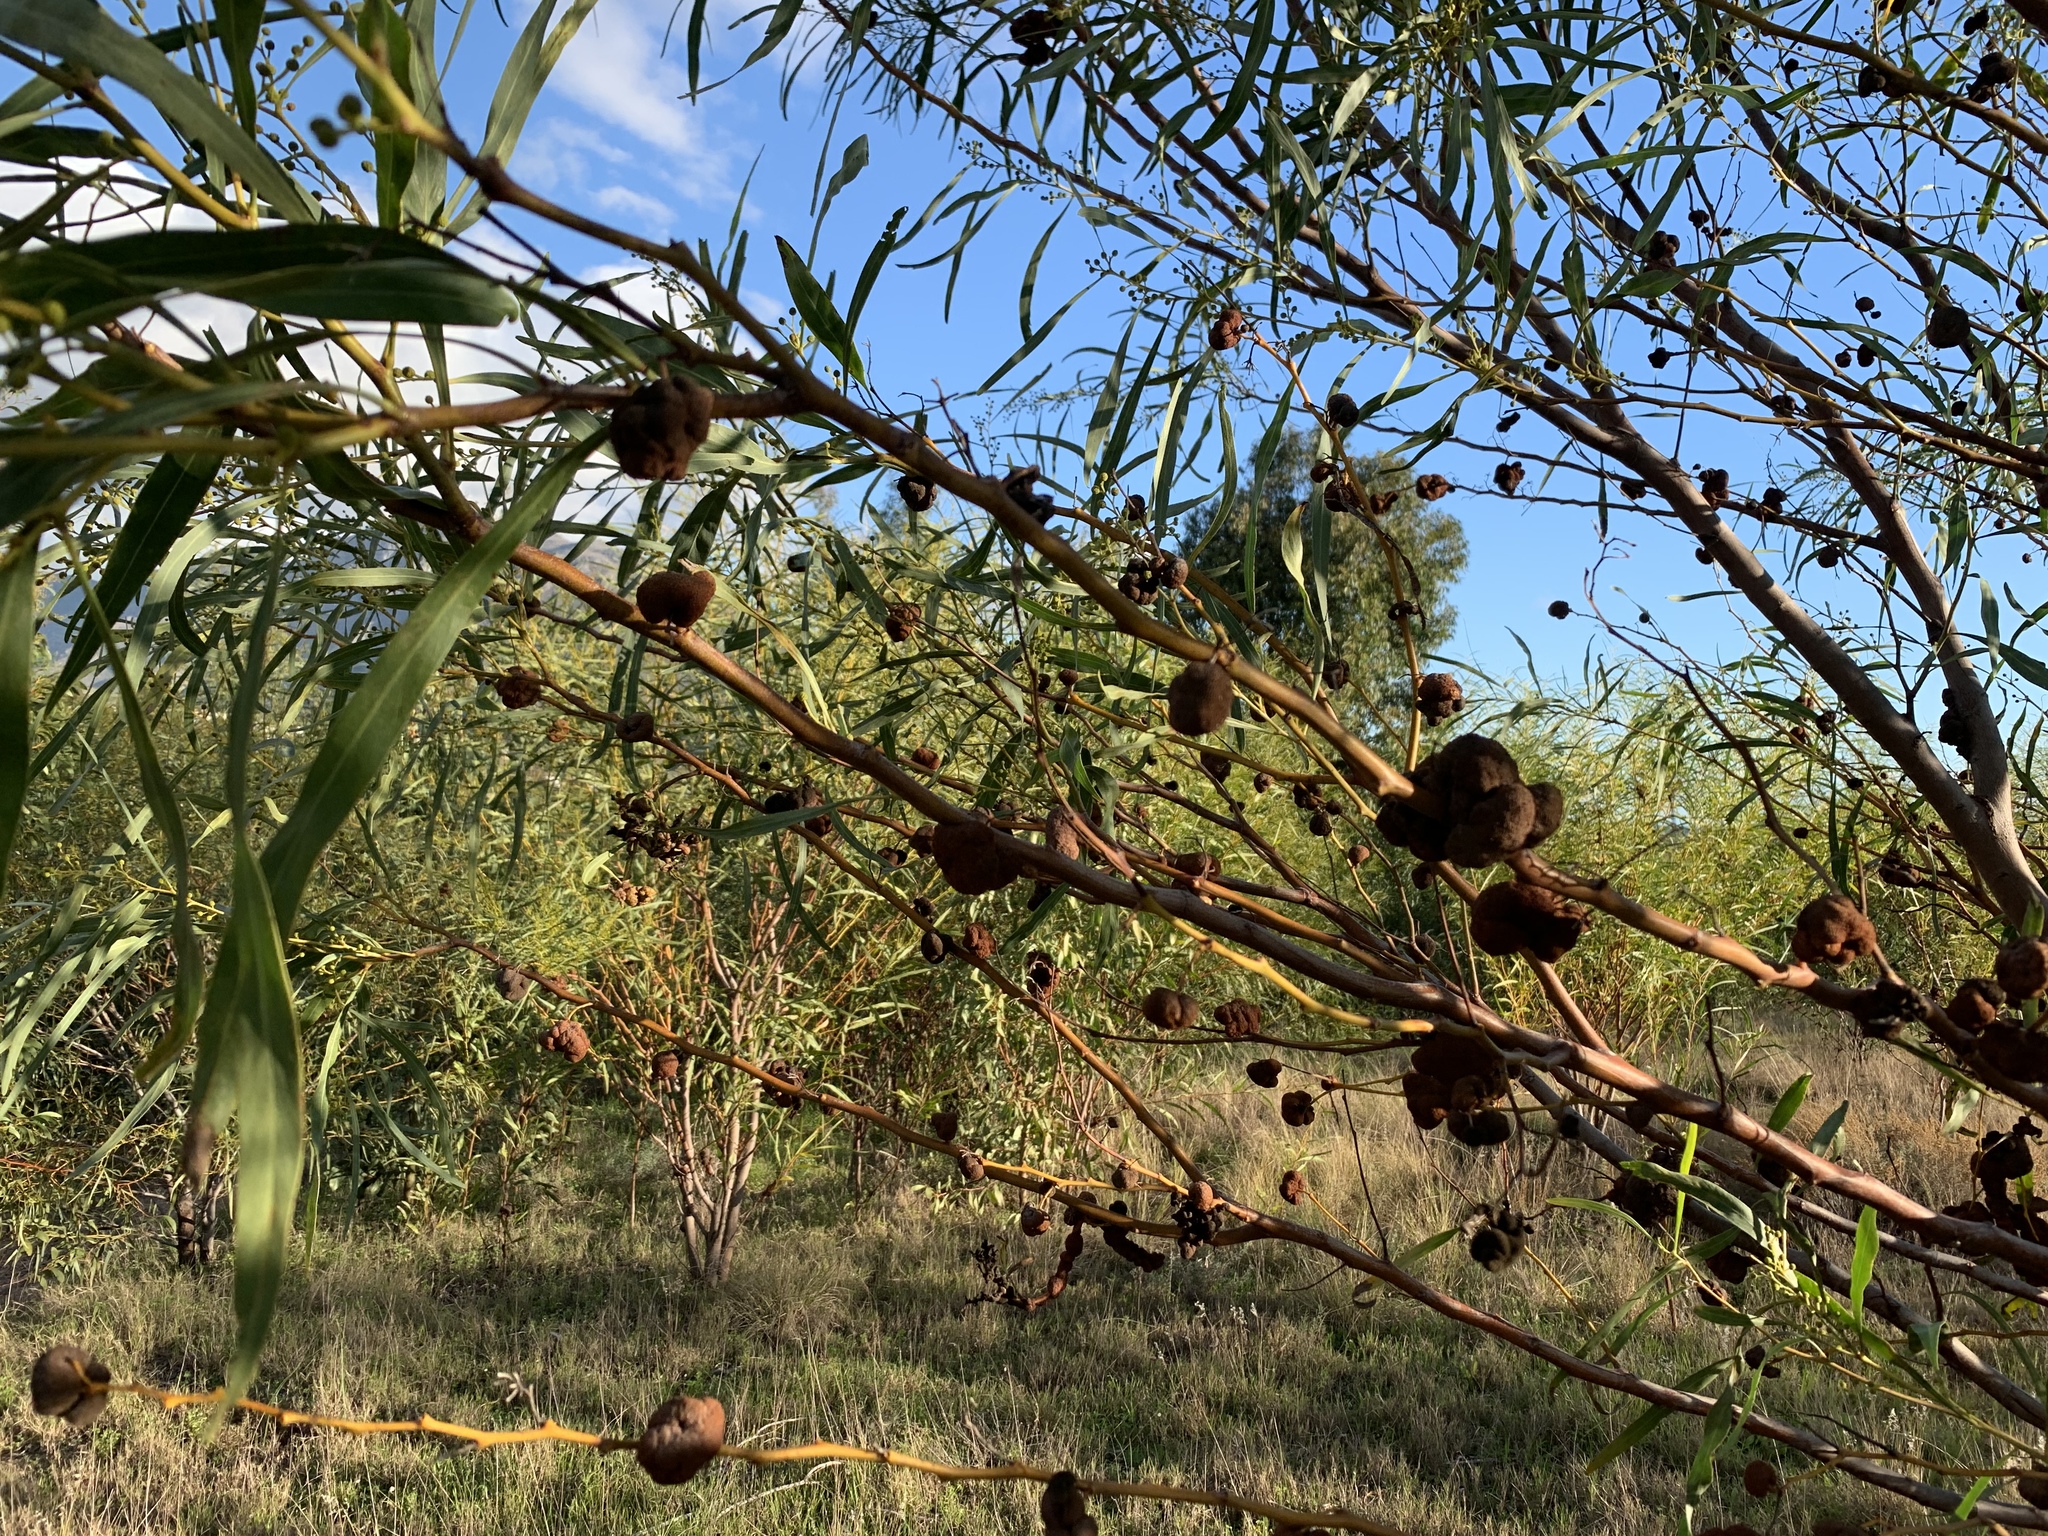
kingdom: Plantae
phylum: Tracheophyta
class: Magnoliopsida
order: Fabales
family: Fabaceae
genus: Acacia
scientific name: Acacia saligna
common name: Orange wattle
